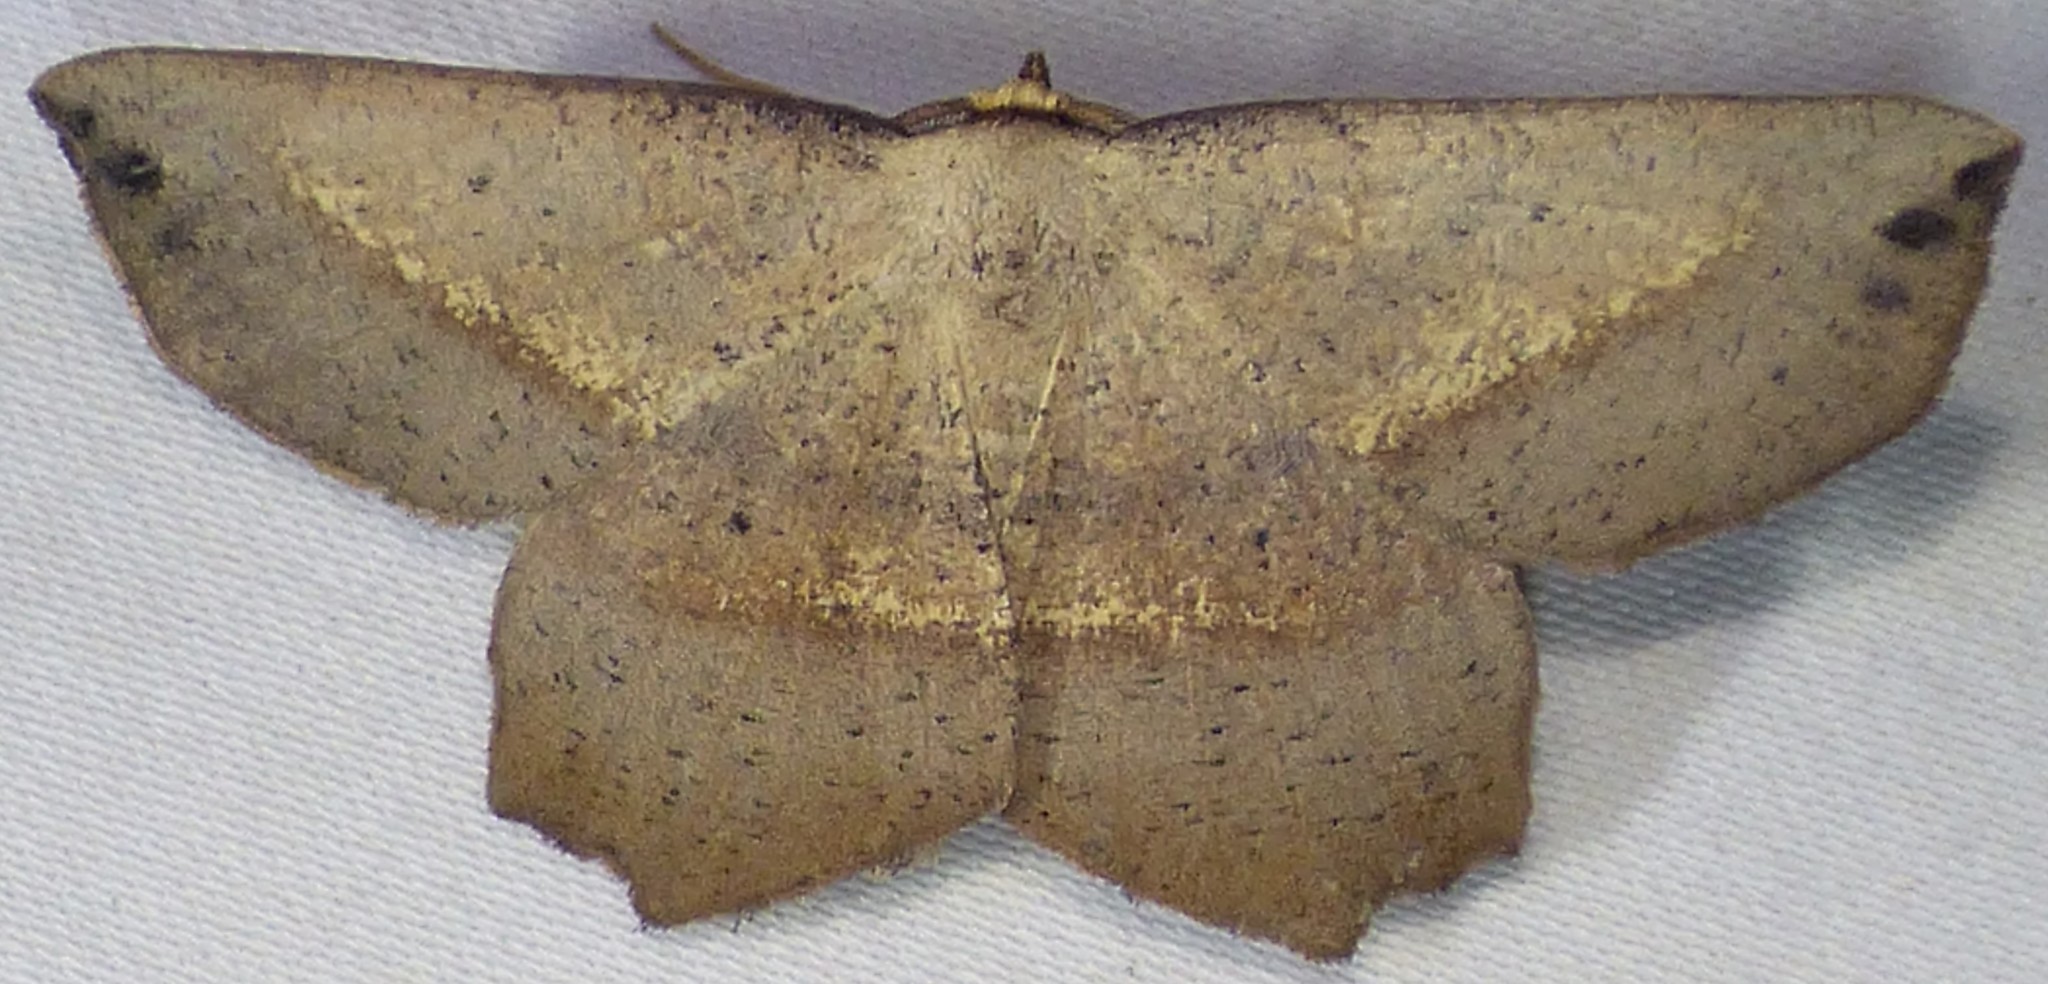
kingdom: Animalia
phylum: Arthropoda
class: Insecta
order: Lepidoptera
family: Geometridae
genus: Euchlaena
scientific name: Euchlaena obtusaria
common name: Obtuse euchlaena moth
